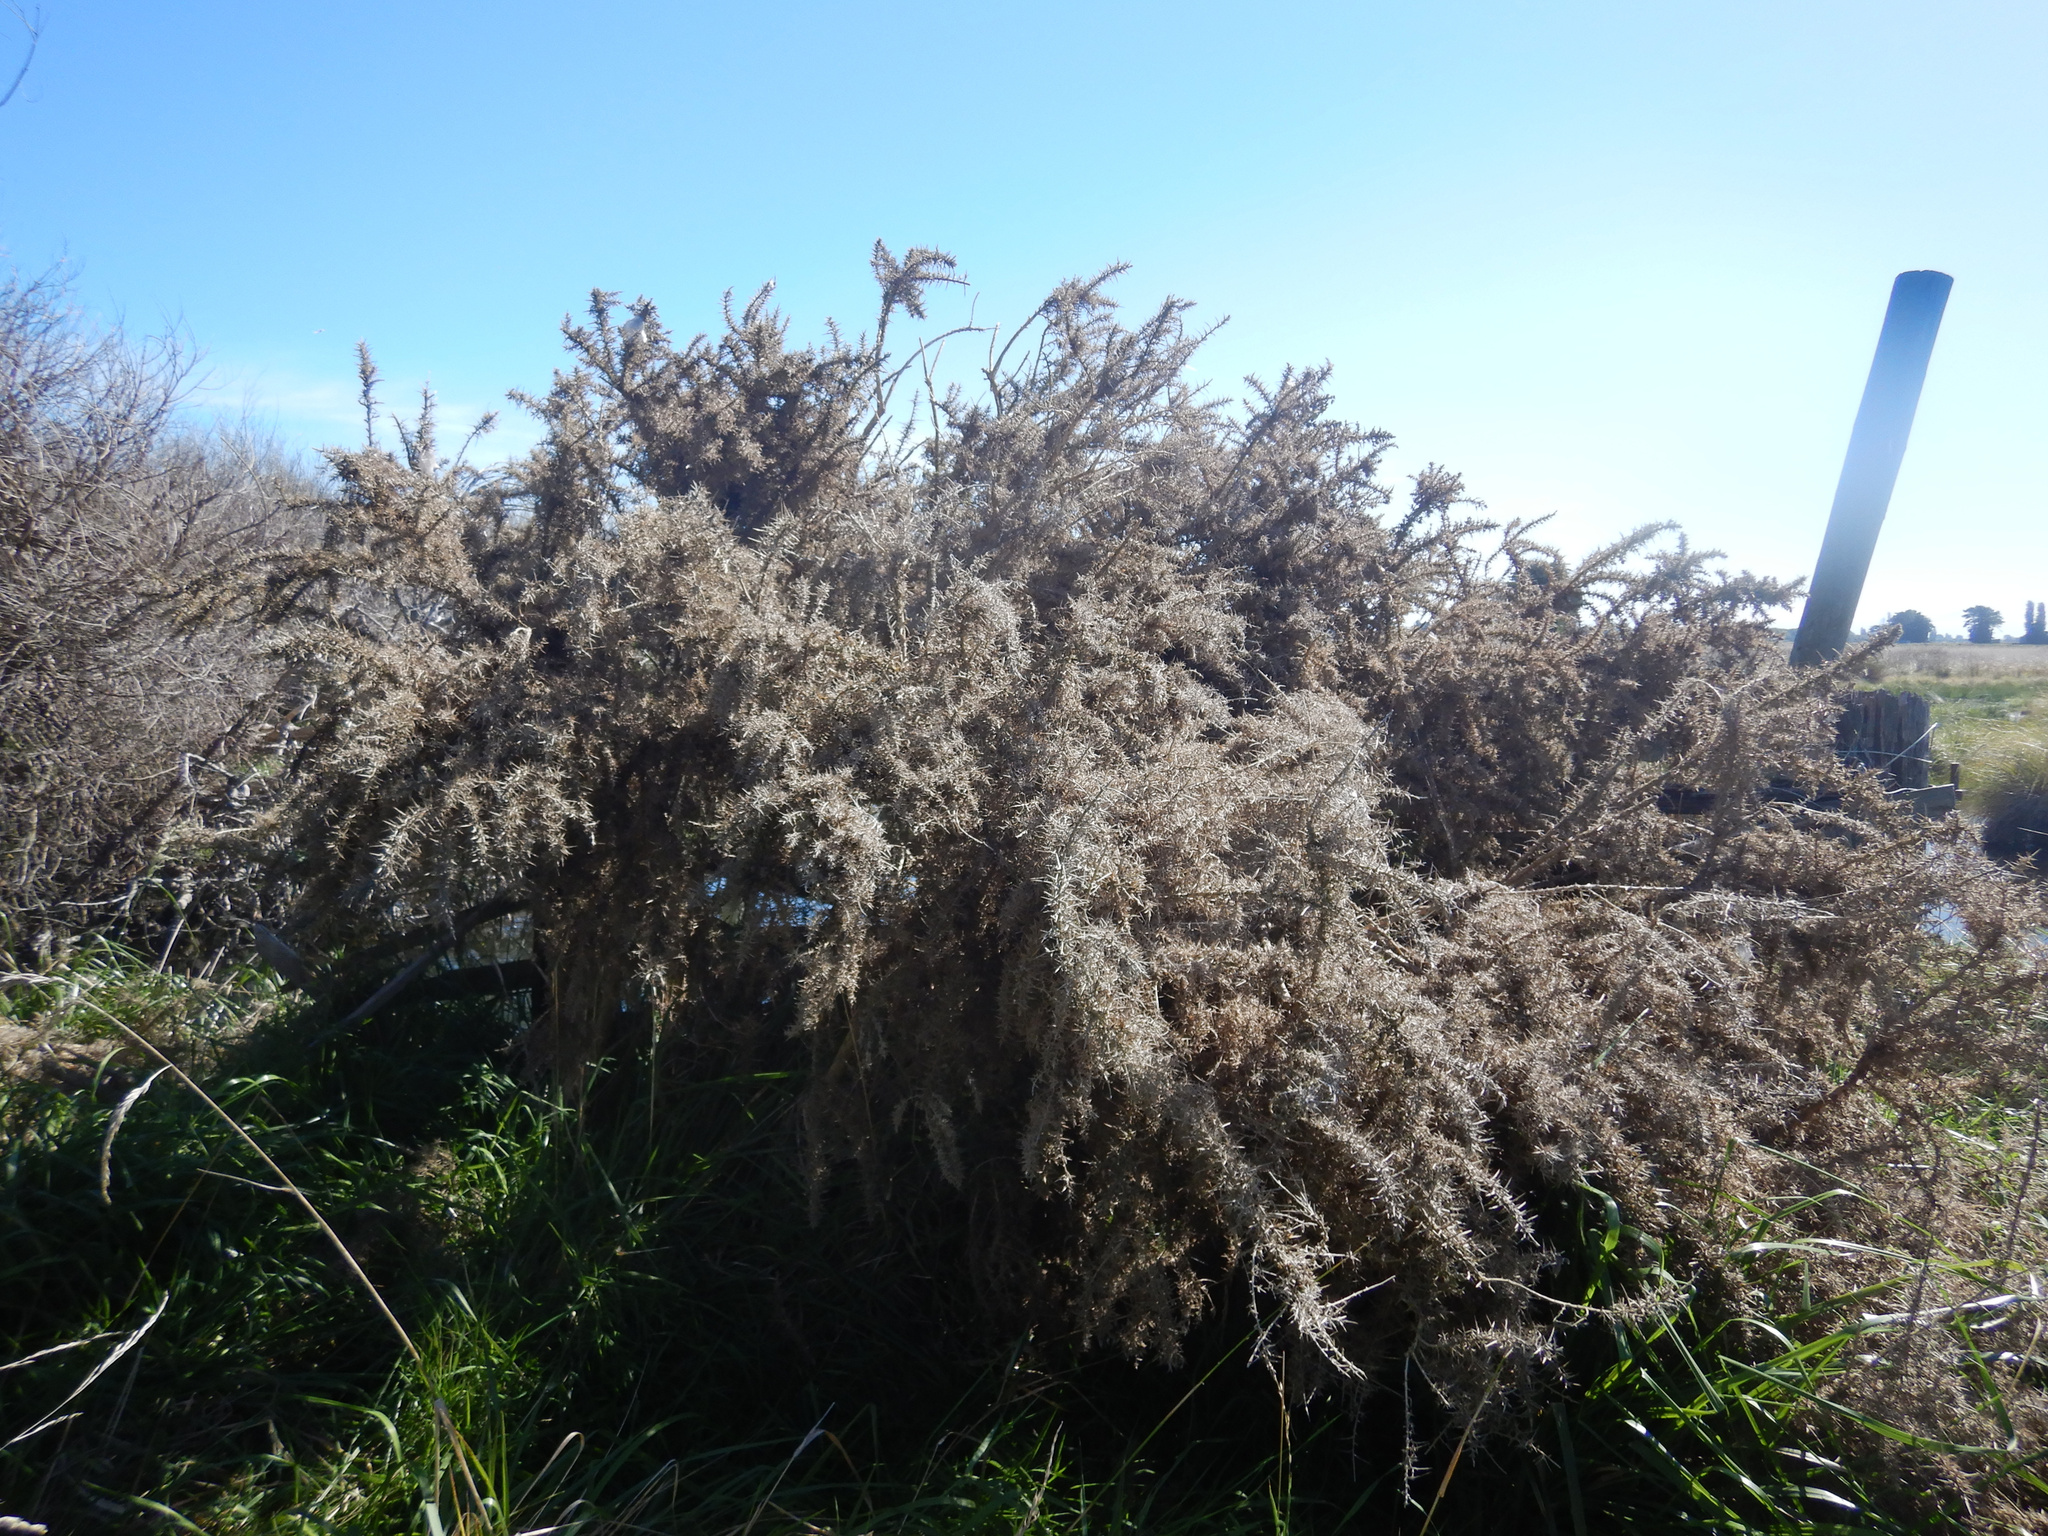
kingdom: Plantae
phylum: Tracheophyta
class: Magnoliopsida
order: Fabales
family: Fabaceae
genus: Ulex
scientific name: Ulex europaeus
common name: Common gorse
